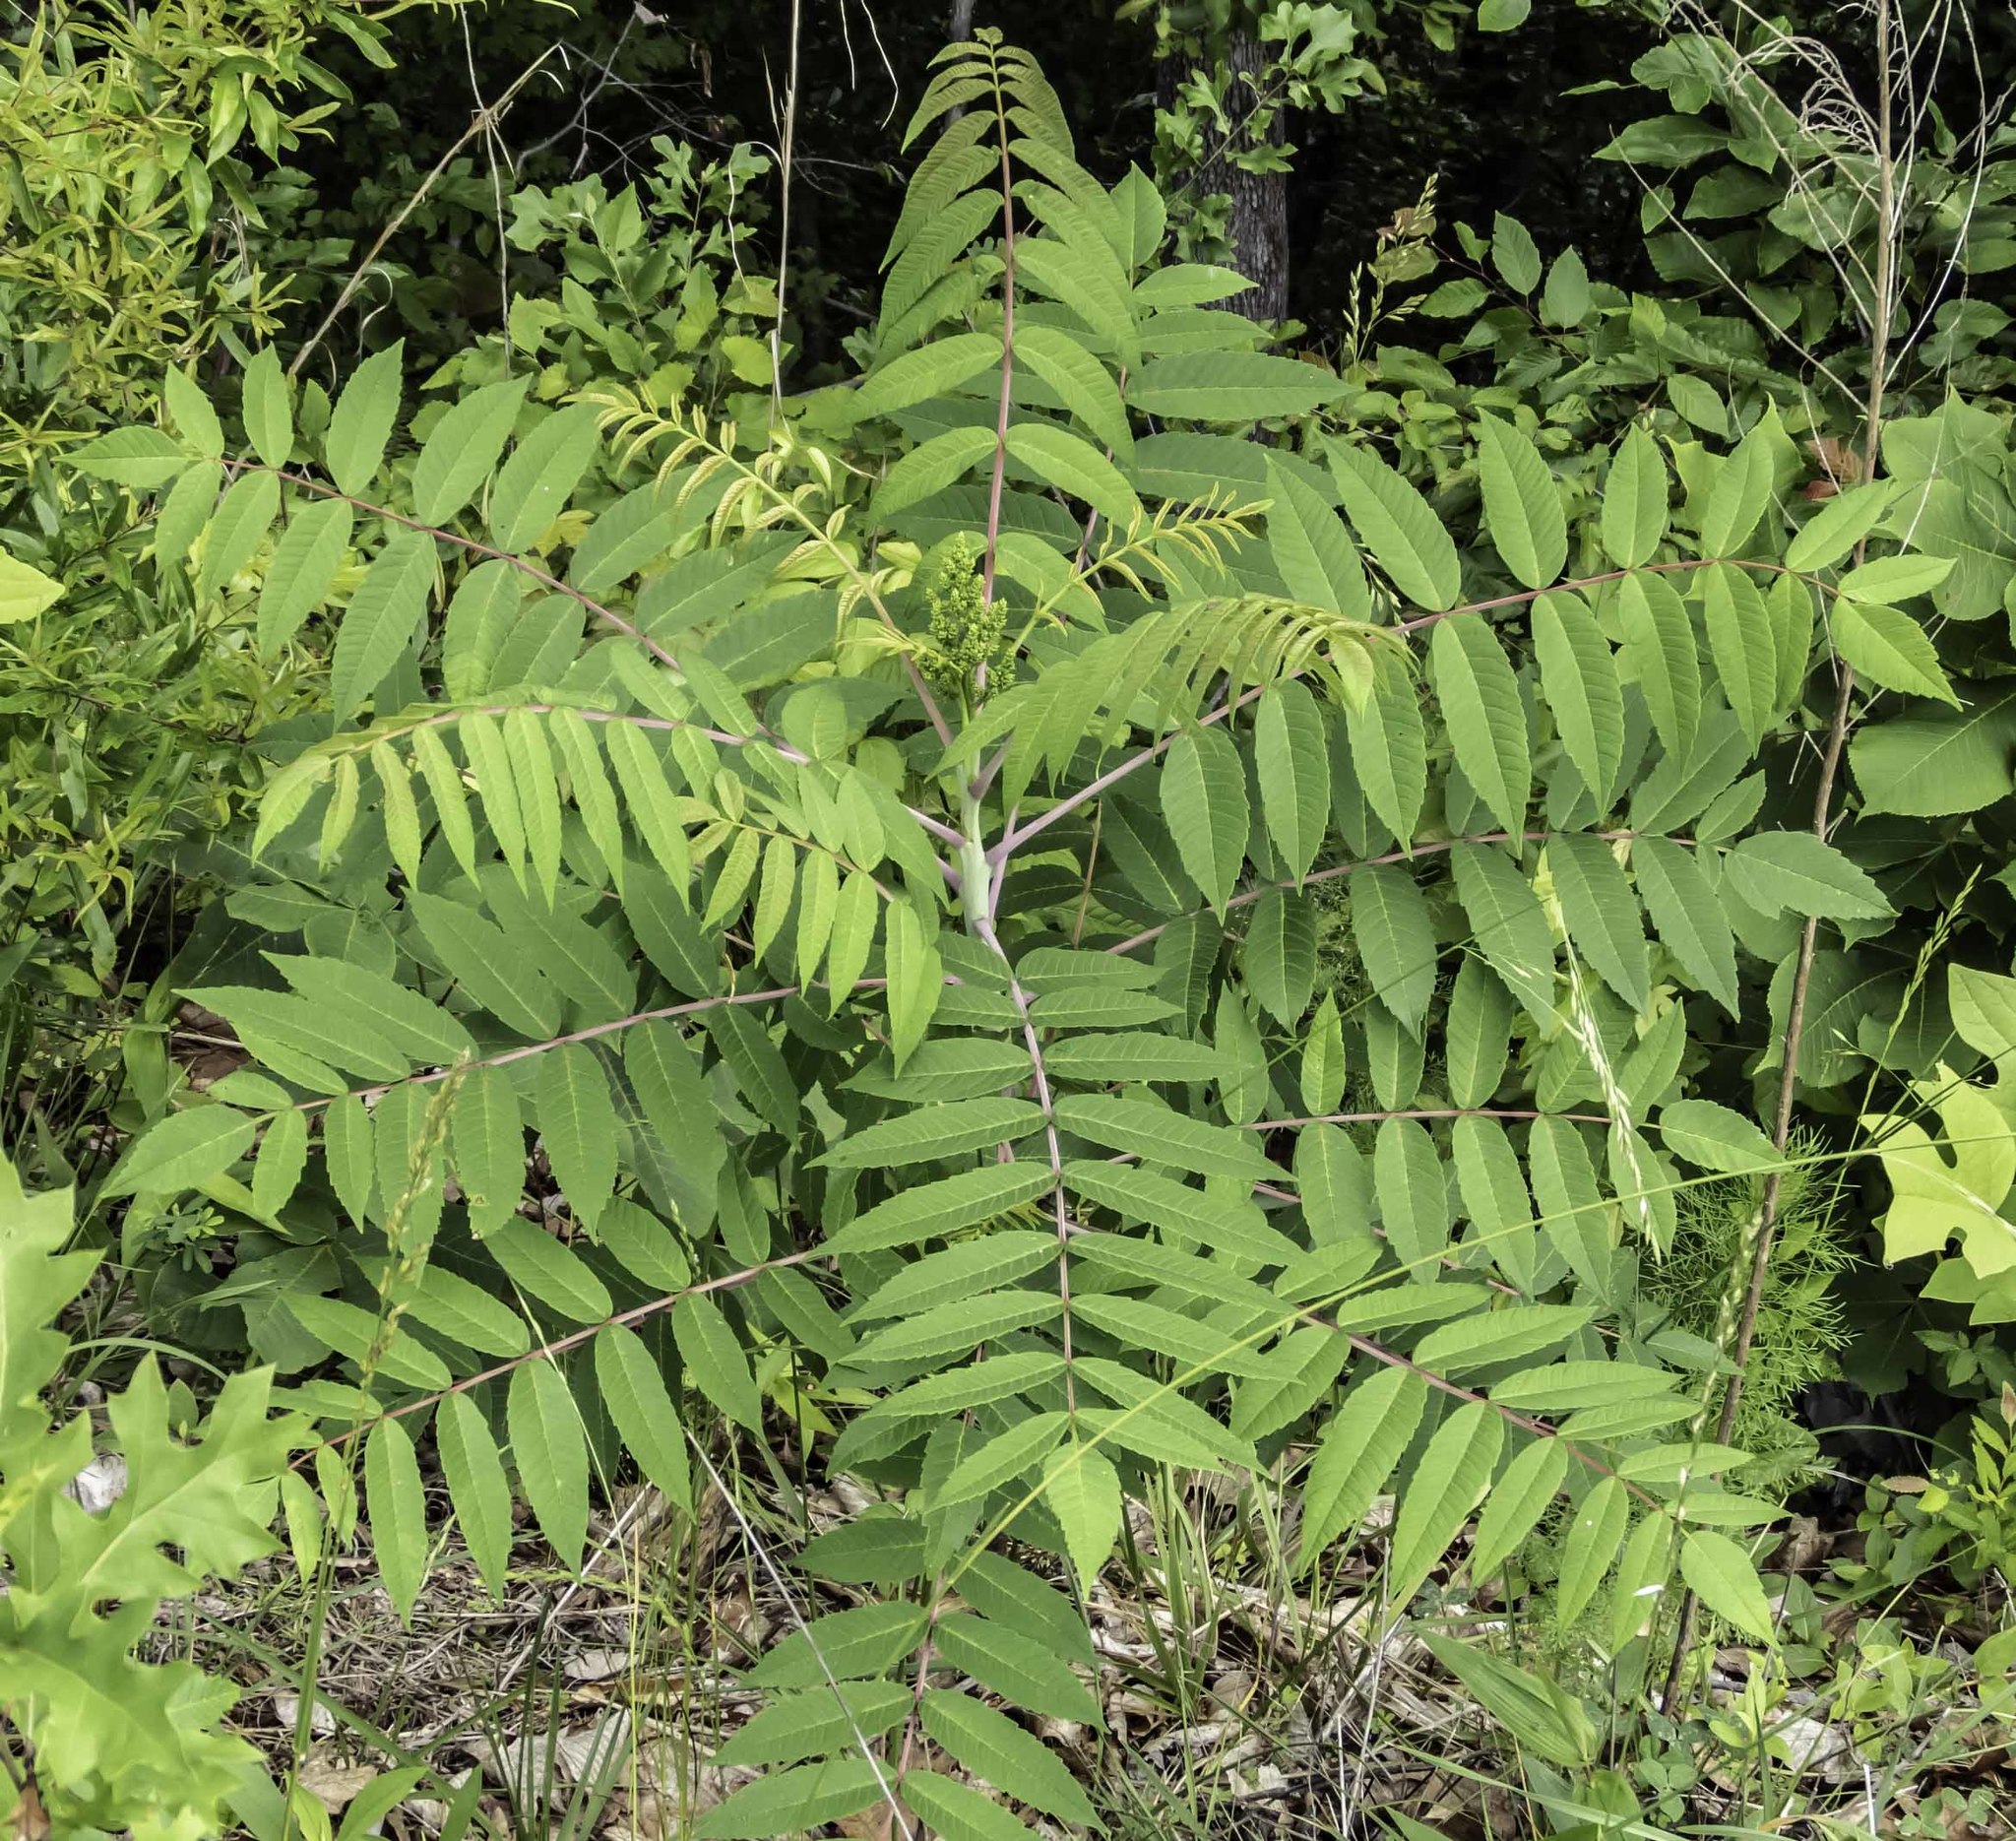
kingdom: Plantae
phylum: Tracheophyta
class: Magnoliopsida
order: Sapindales
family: Anacardiaceae
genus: Rhus
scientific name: Rhus glabra
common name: Scarlet sumac
